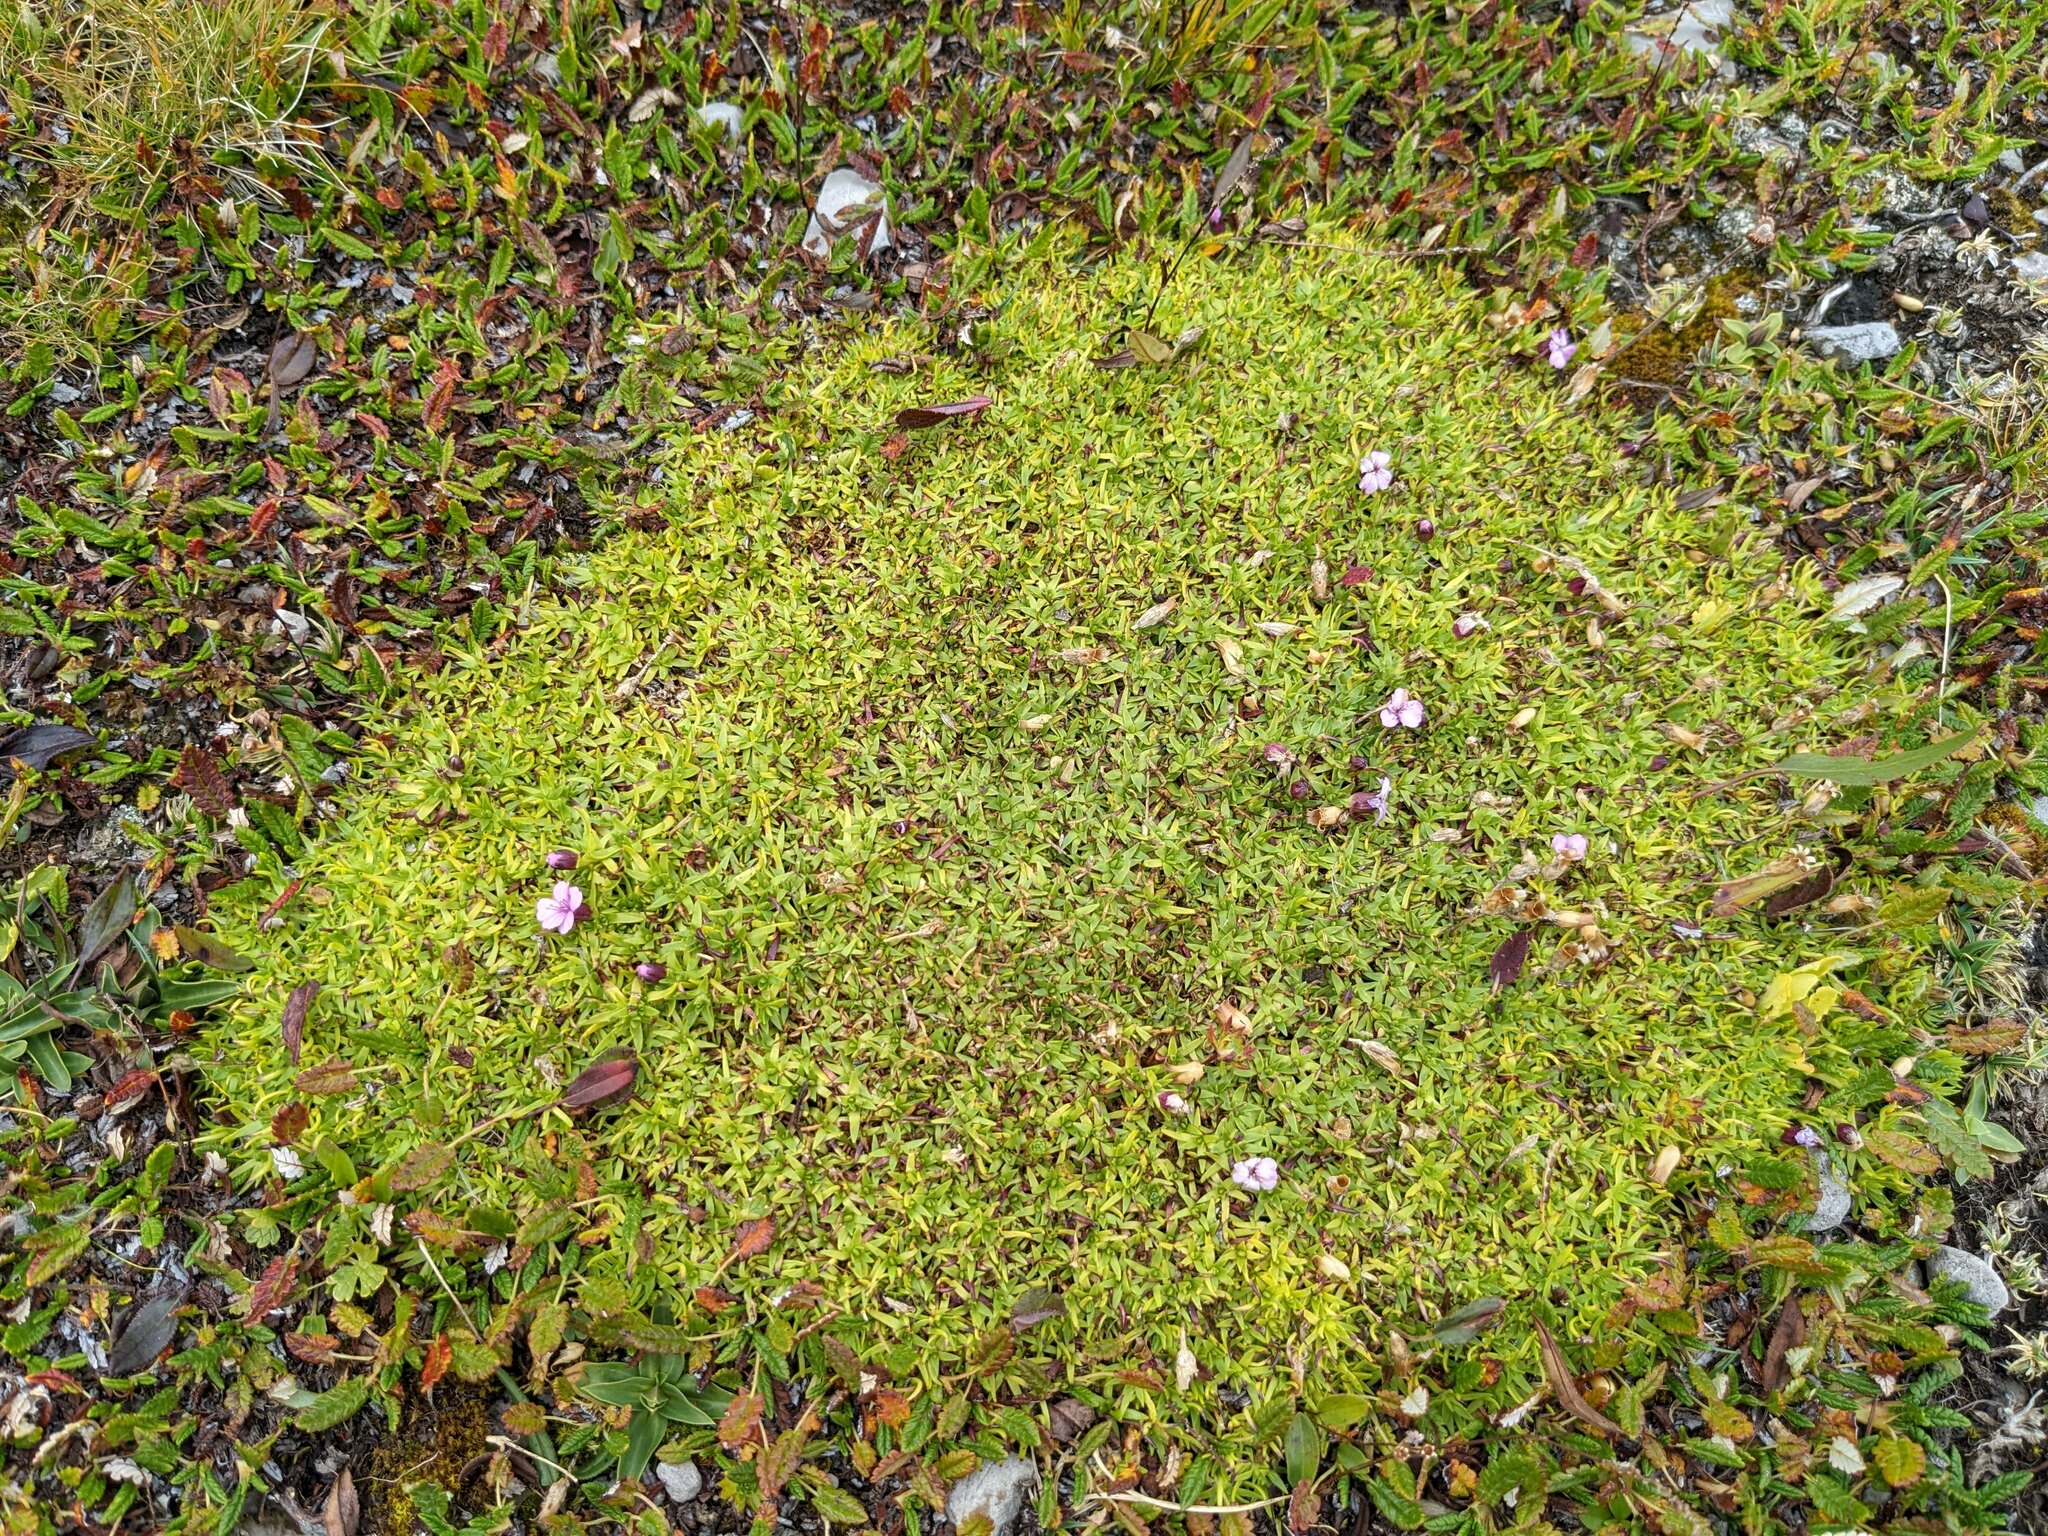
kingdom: Plantae
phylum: Tracheophyta
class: Magnoliopsida
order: Caryophyllales
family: Caryophyllaceae
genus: Silene
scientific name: Silene acaulis
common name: Moss campion
